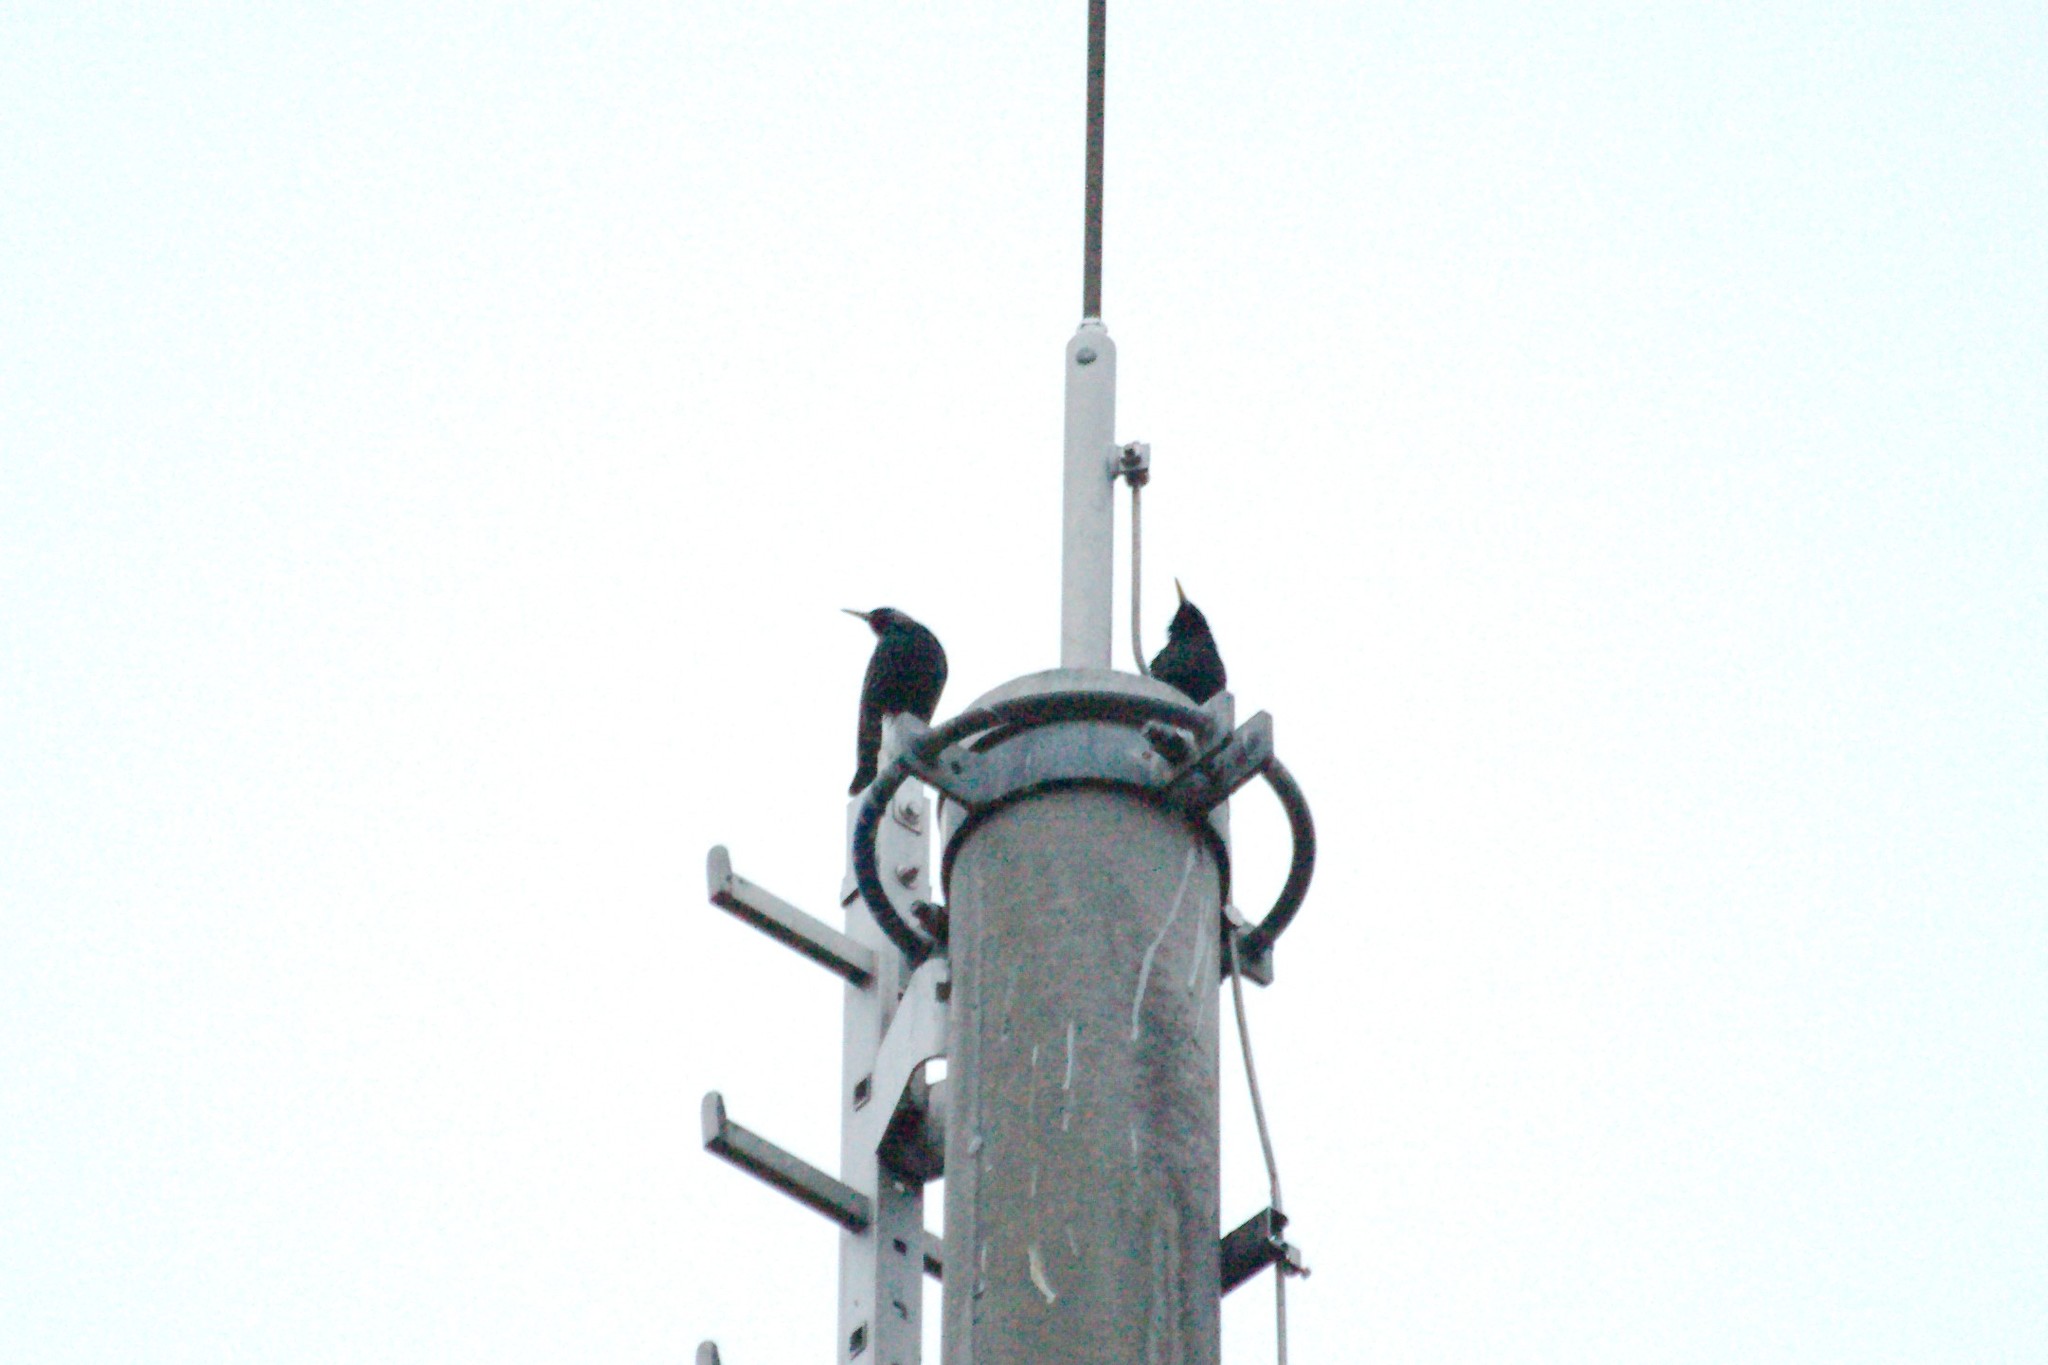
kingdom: Animalia
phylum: Chordata
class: Aves
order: Passeriformes
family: Sturnidae
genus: Sturnus
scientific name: Sturnus vulgaris
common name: Common starling
